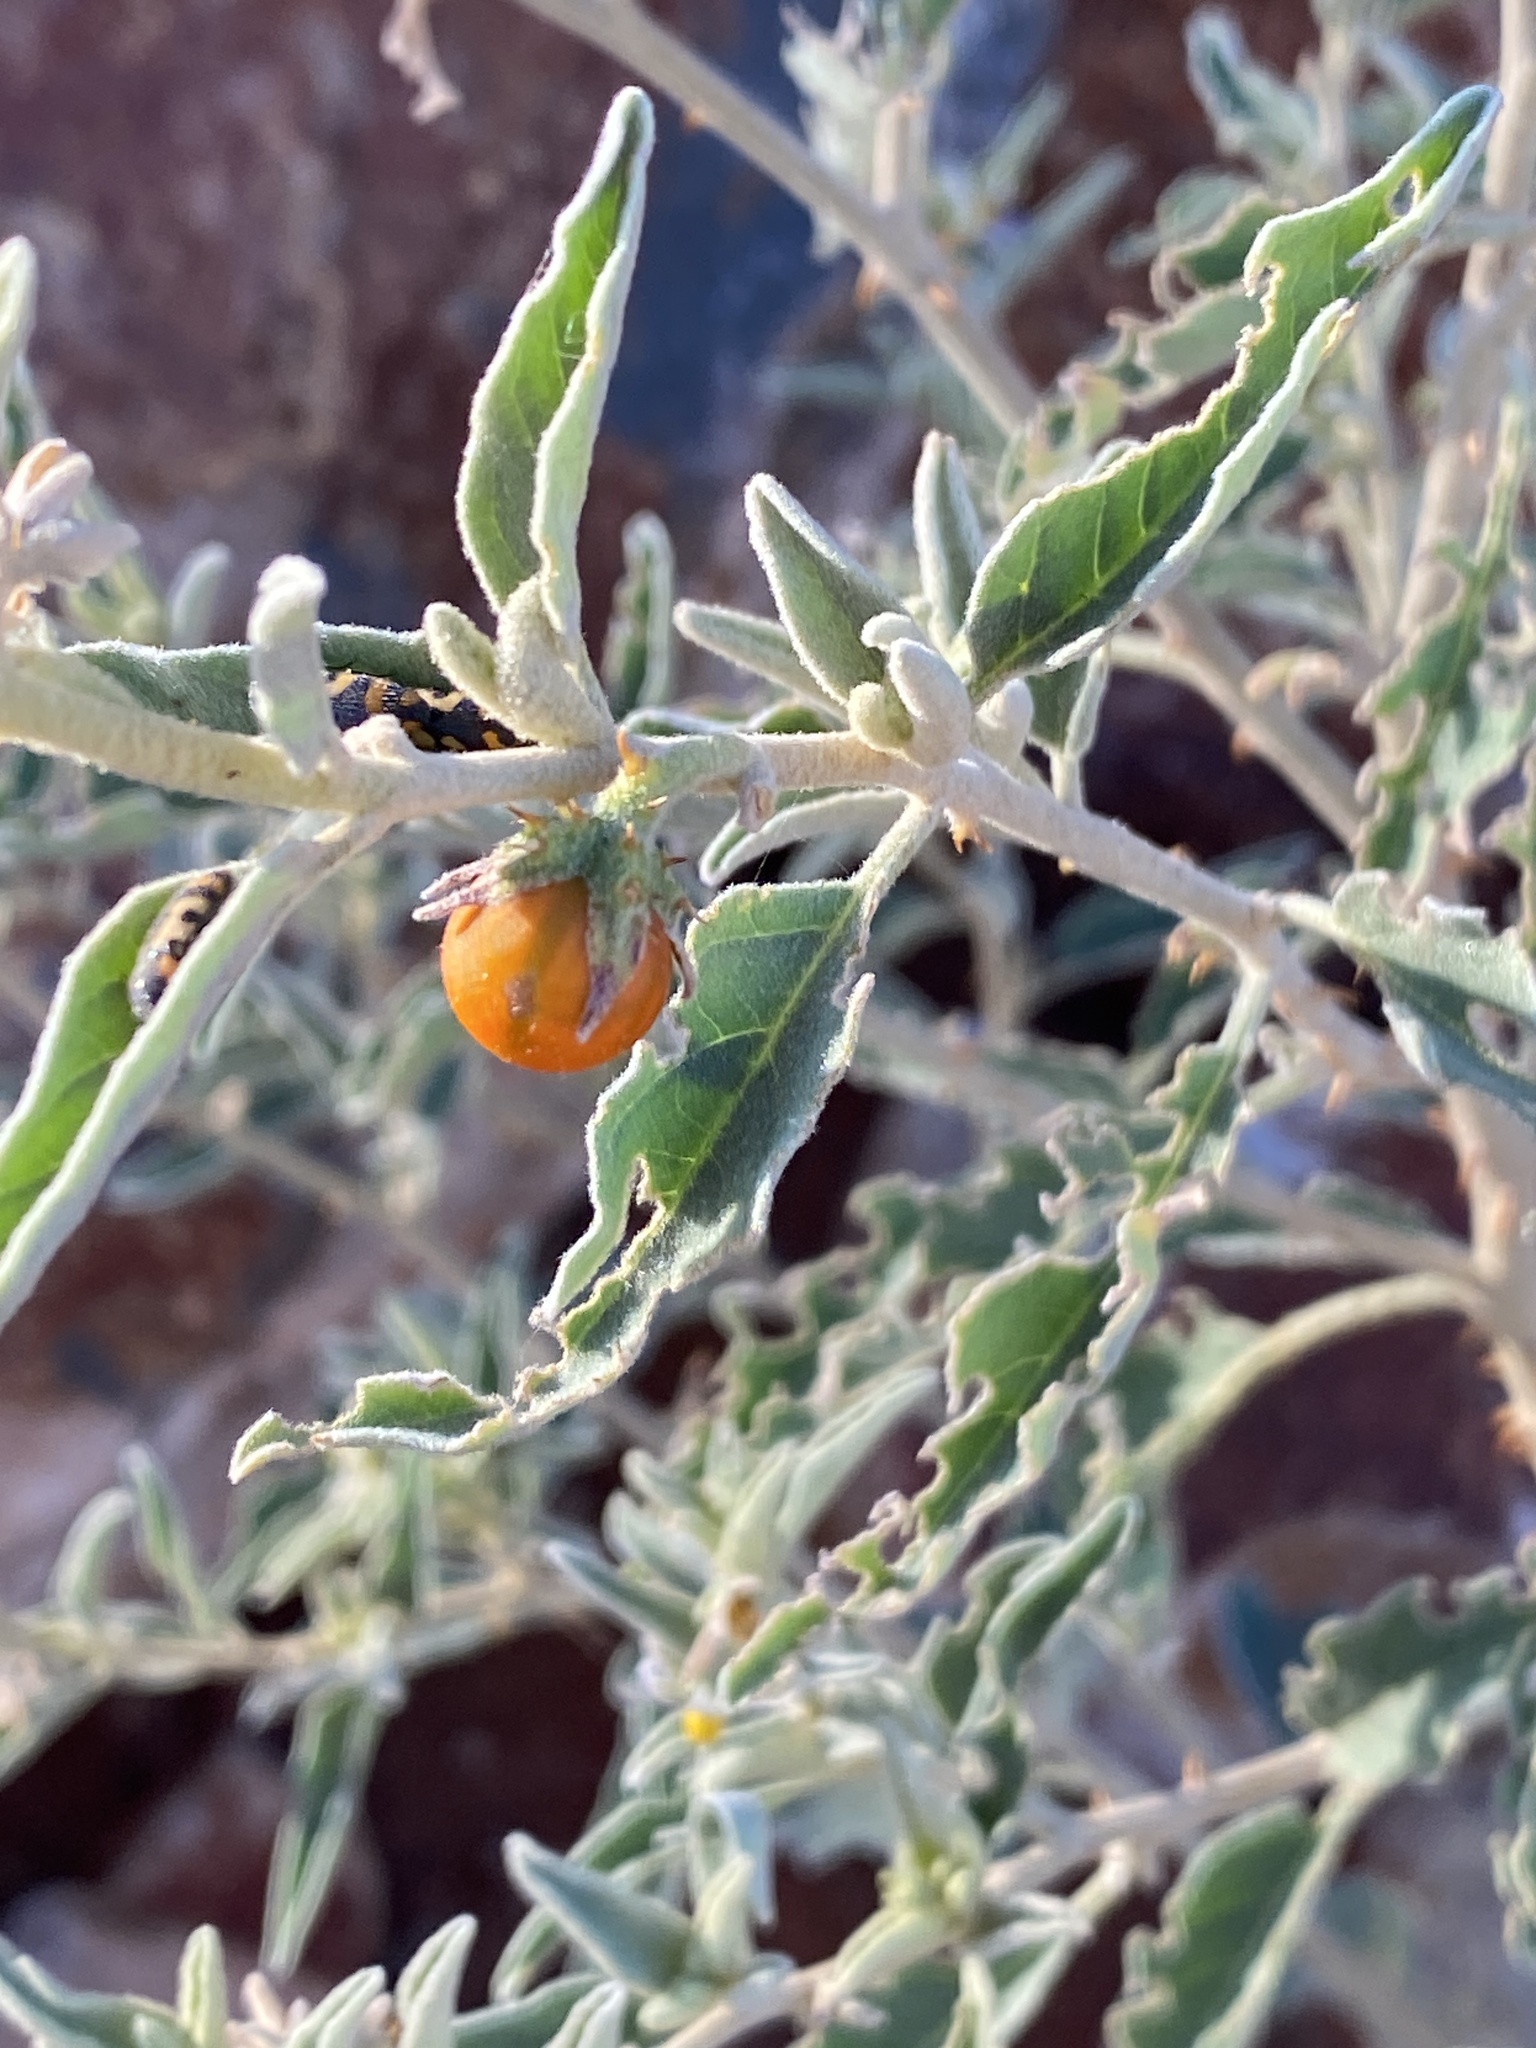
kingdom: Plantae
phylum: Tracheophyta
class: Magnoliopsida
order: Solanales
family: Solanaceae
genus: Solanum
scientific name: Solanum catombelense
